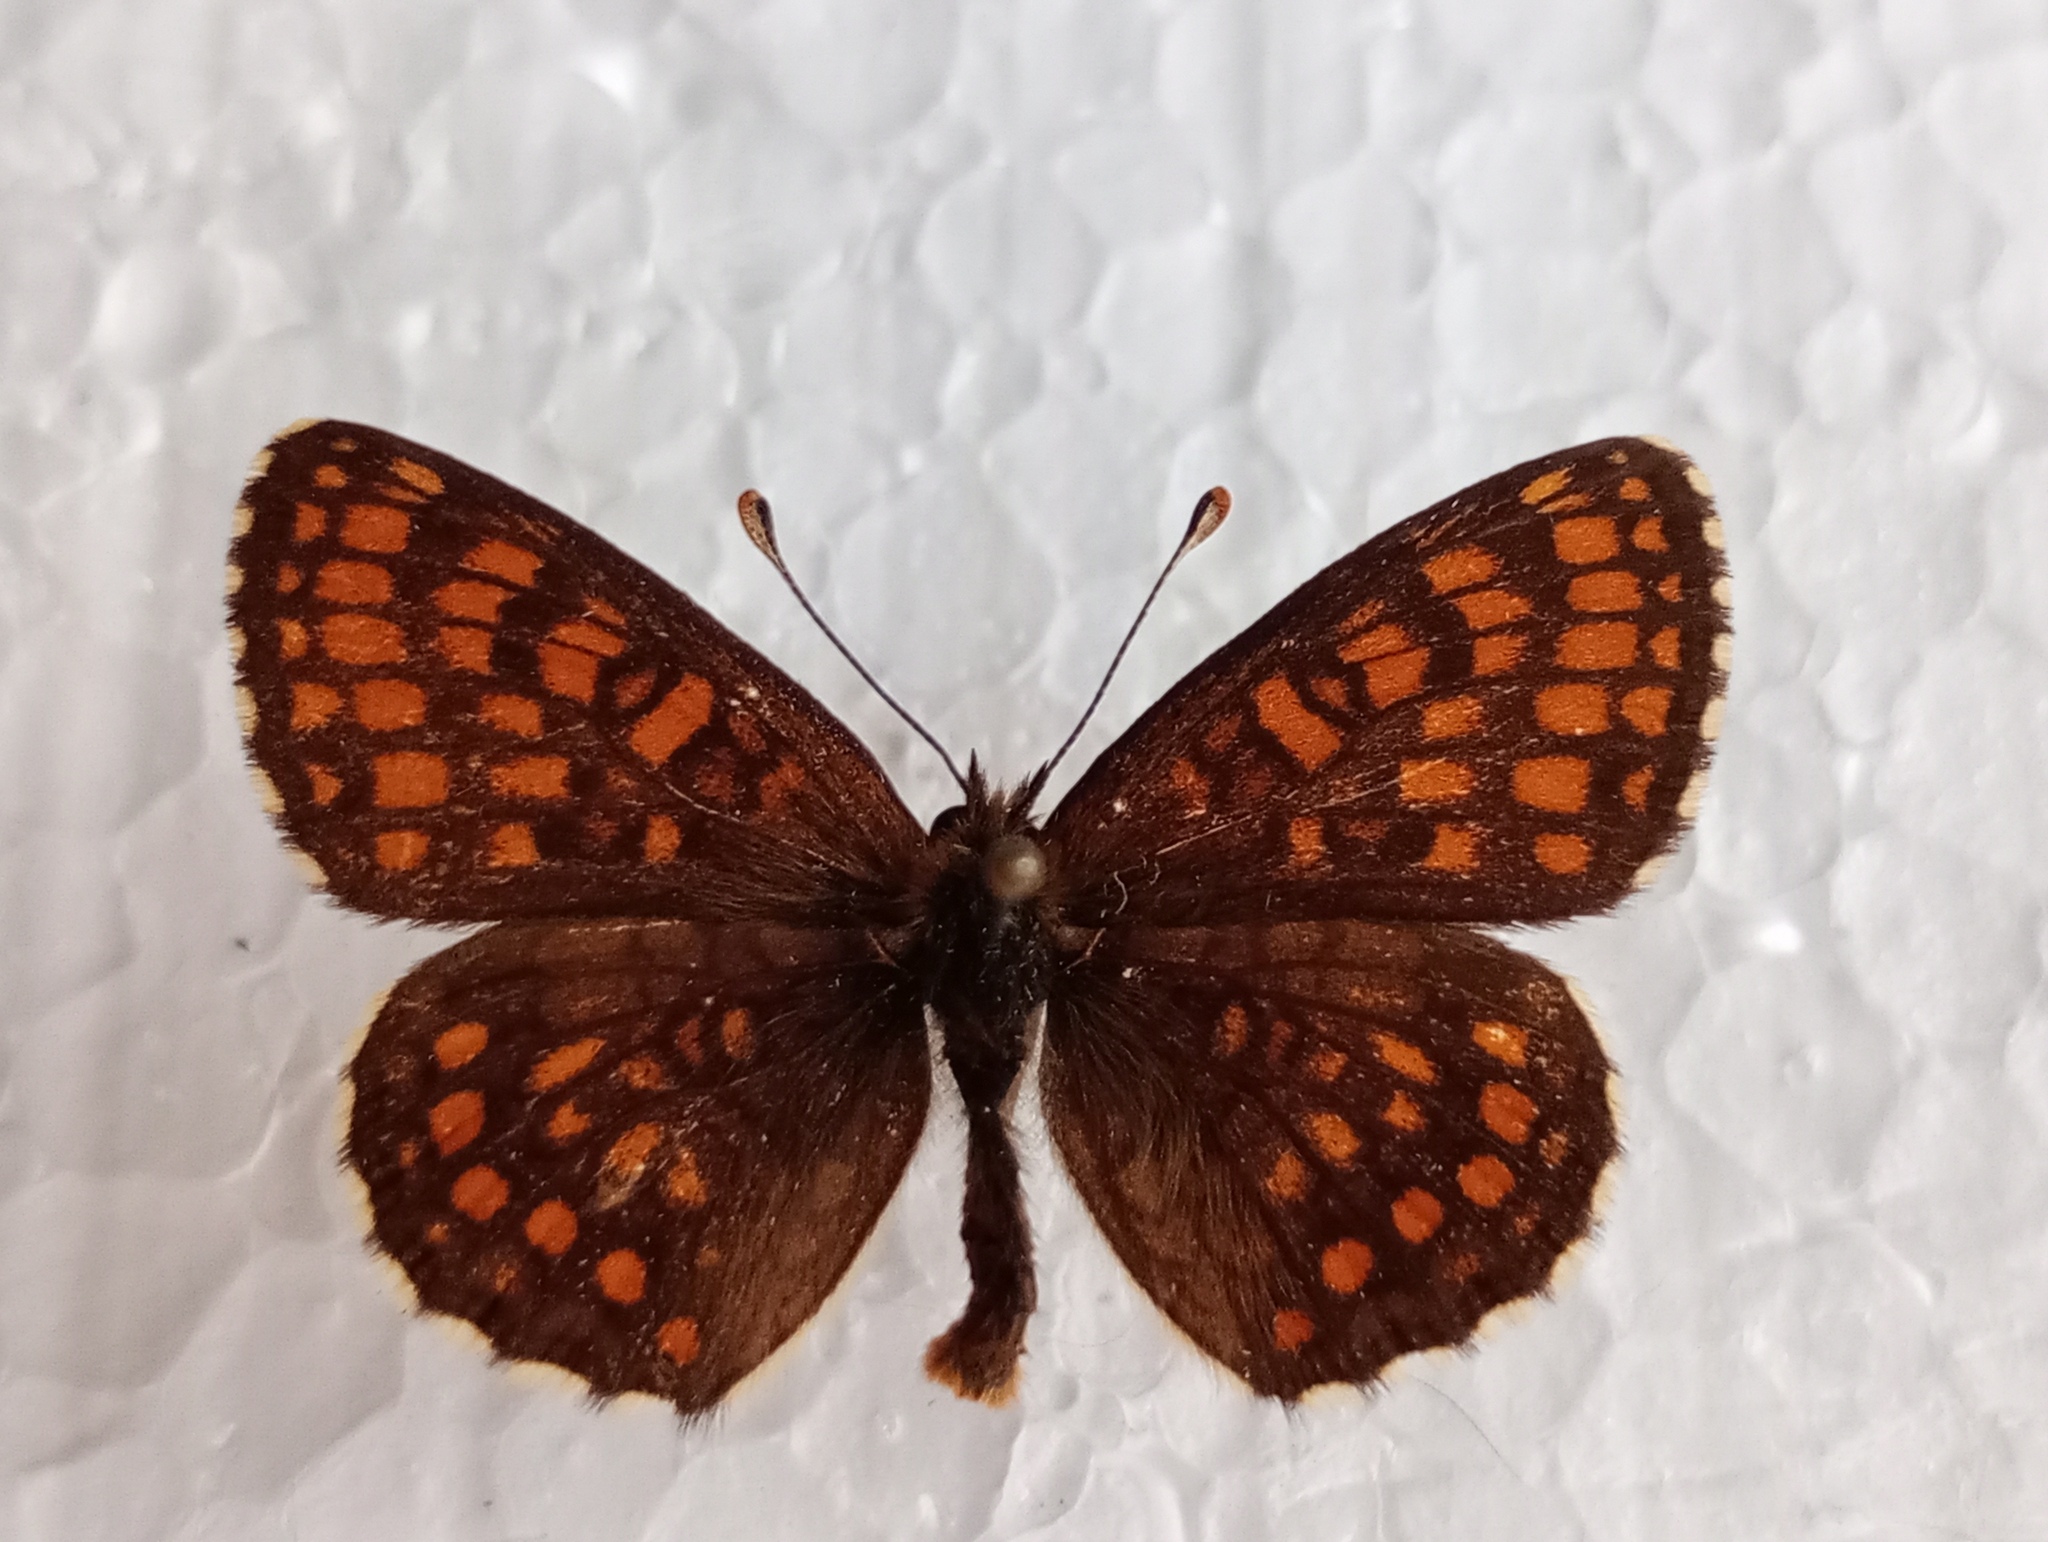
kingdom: Animalia
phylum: Arthropoda
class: Insecta
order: Lepidoptera
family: Nymphalidae
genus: Melitaea
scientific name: Melitaea athalia
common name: Heath fritillary
